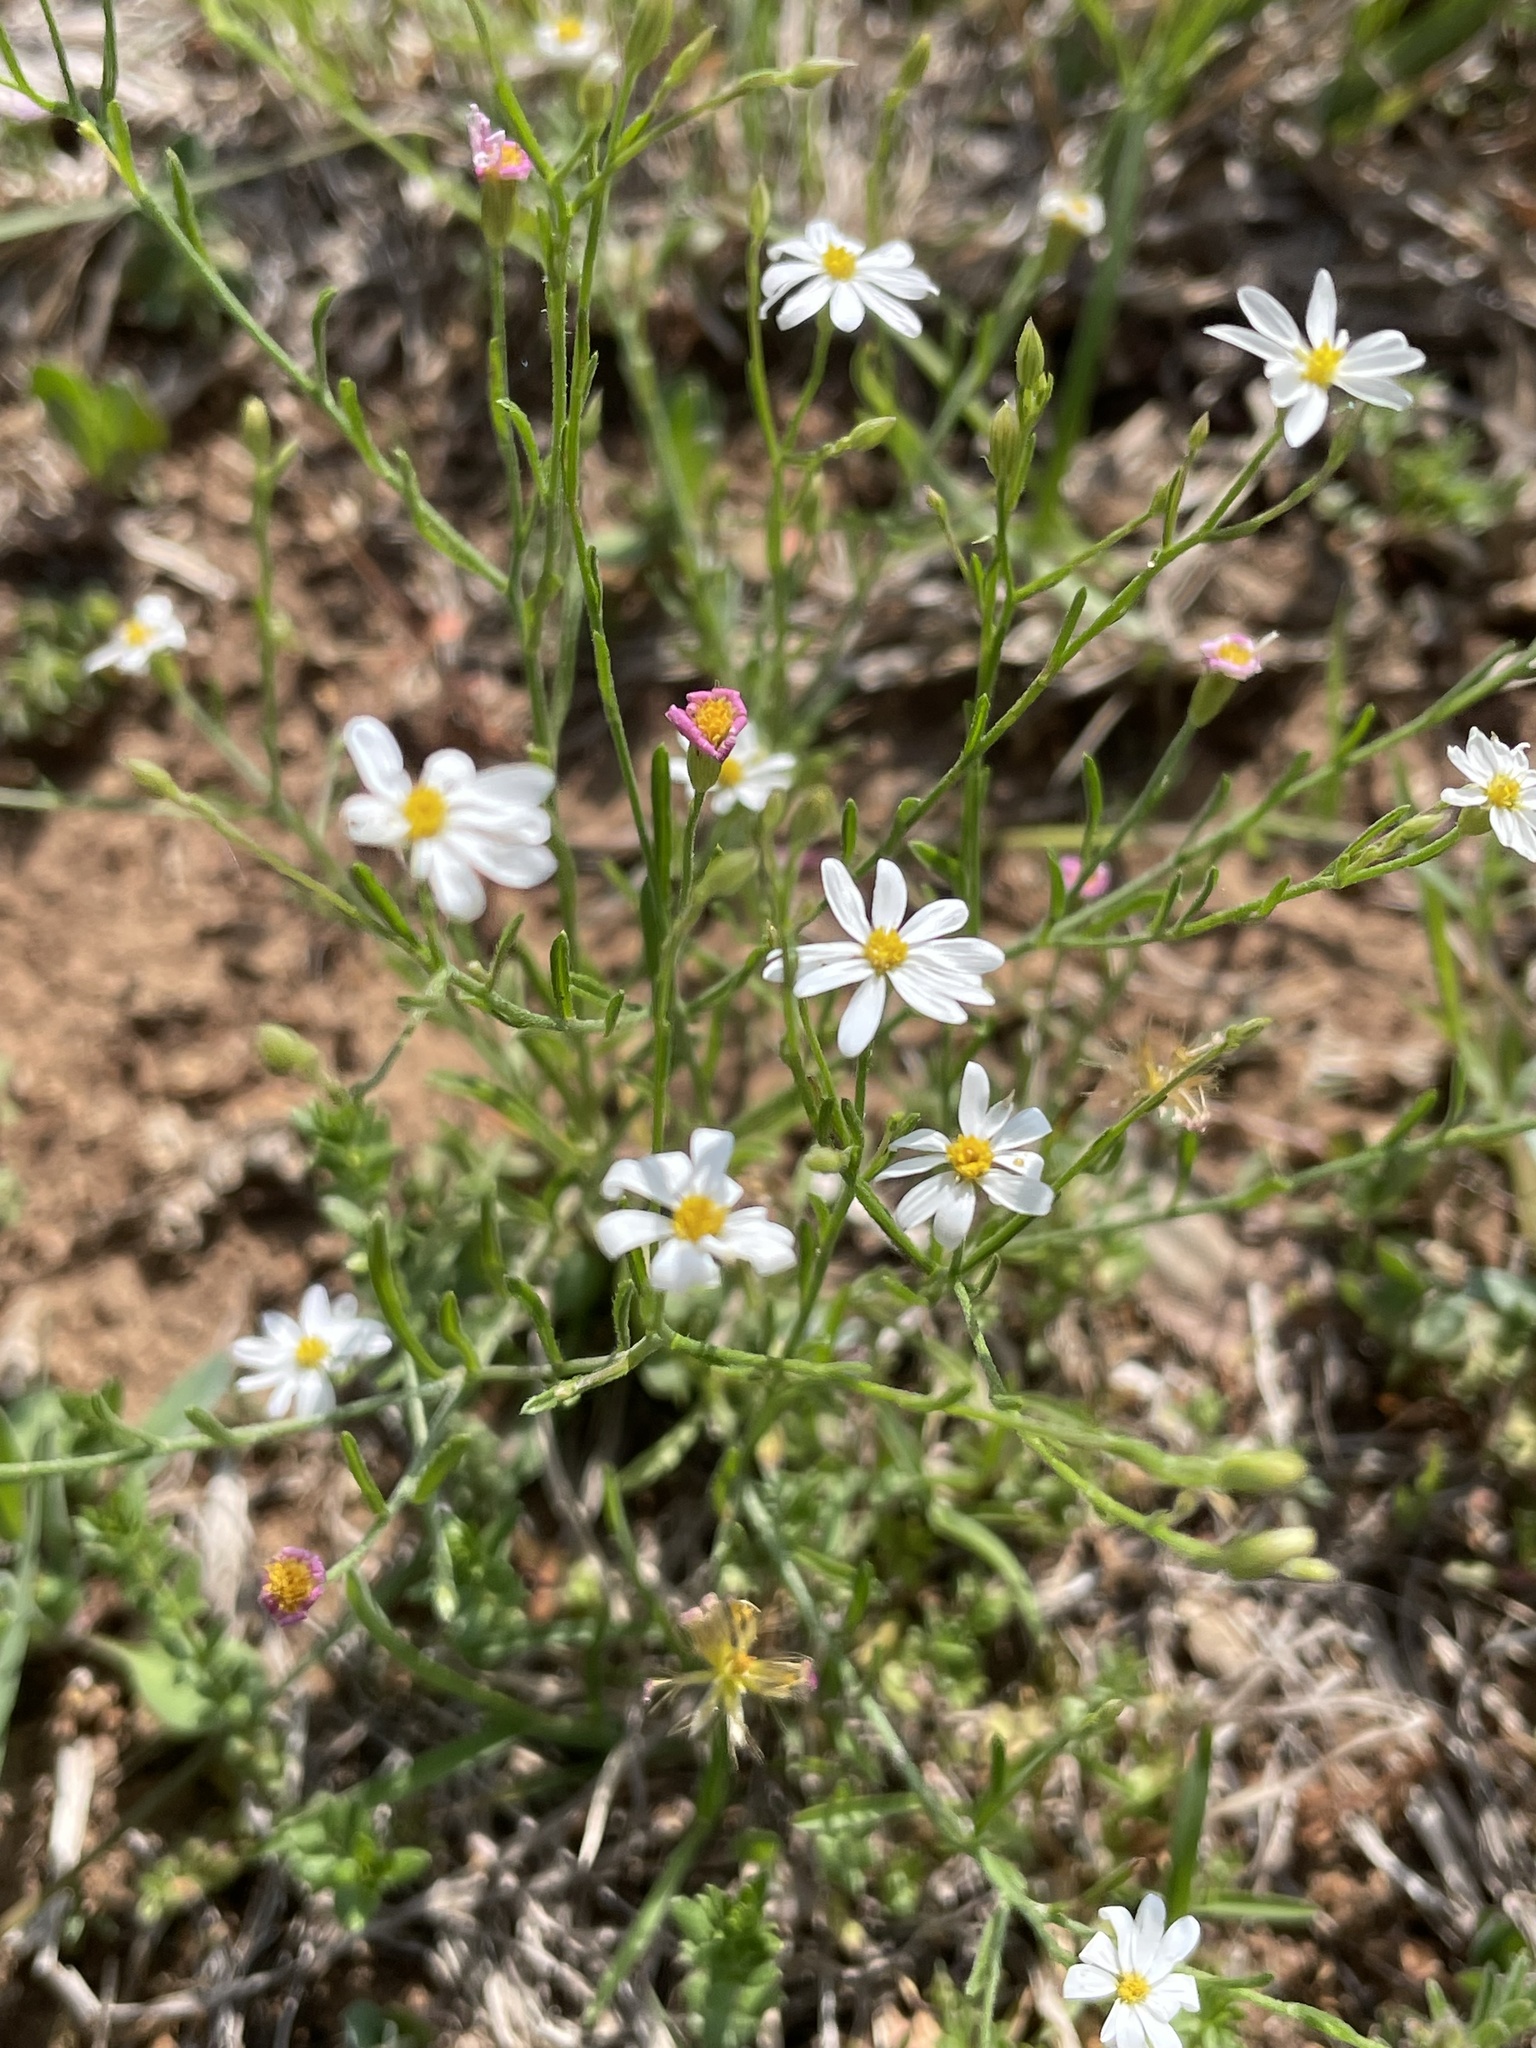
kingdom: Plantae
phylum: Tracheophyta
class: Magnoliopsida
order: Asterales
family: Asteraceae
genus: Chaetopappa
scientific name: Chaetopappa asteroides
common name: Tiny lazy daisy
